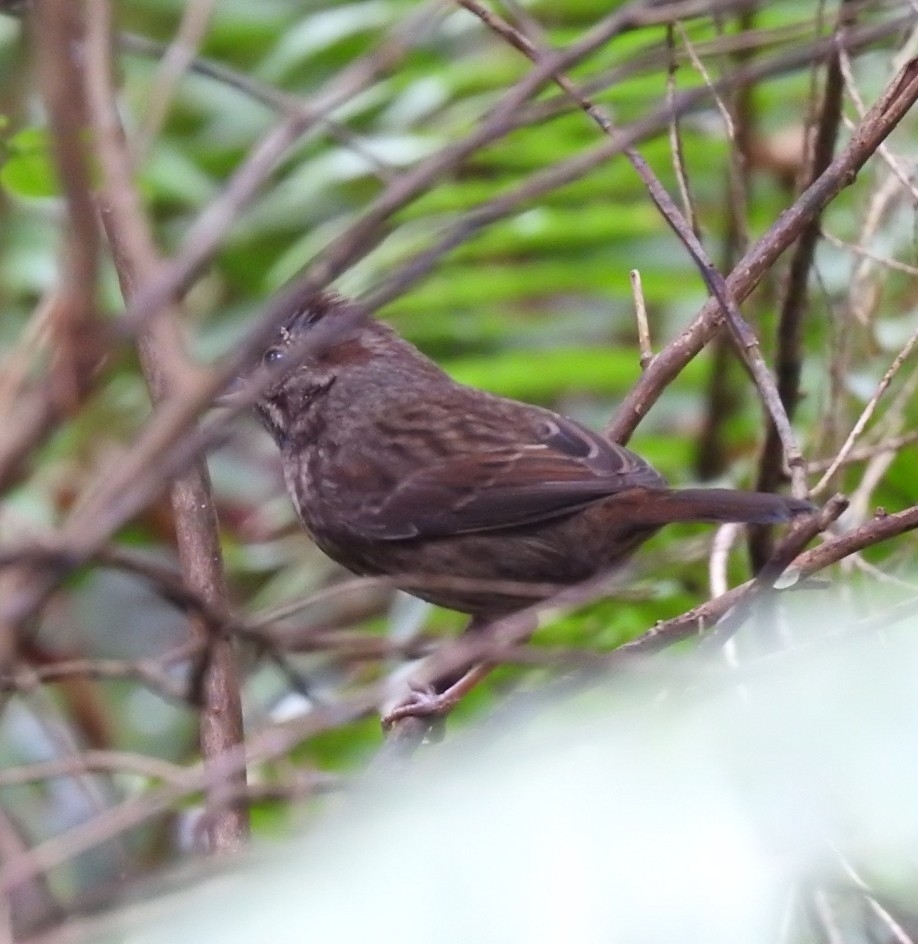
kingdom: Animalia
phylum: Chordata
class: Aves
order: Passeriformes
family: Passerellidae
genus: Melospiza
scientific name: Melospiza melodia
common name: Song sparrow
